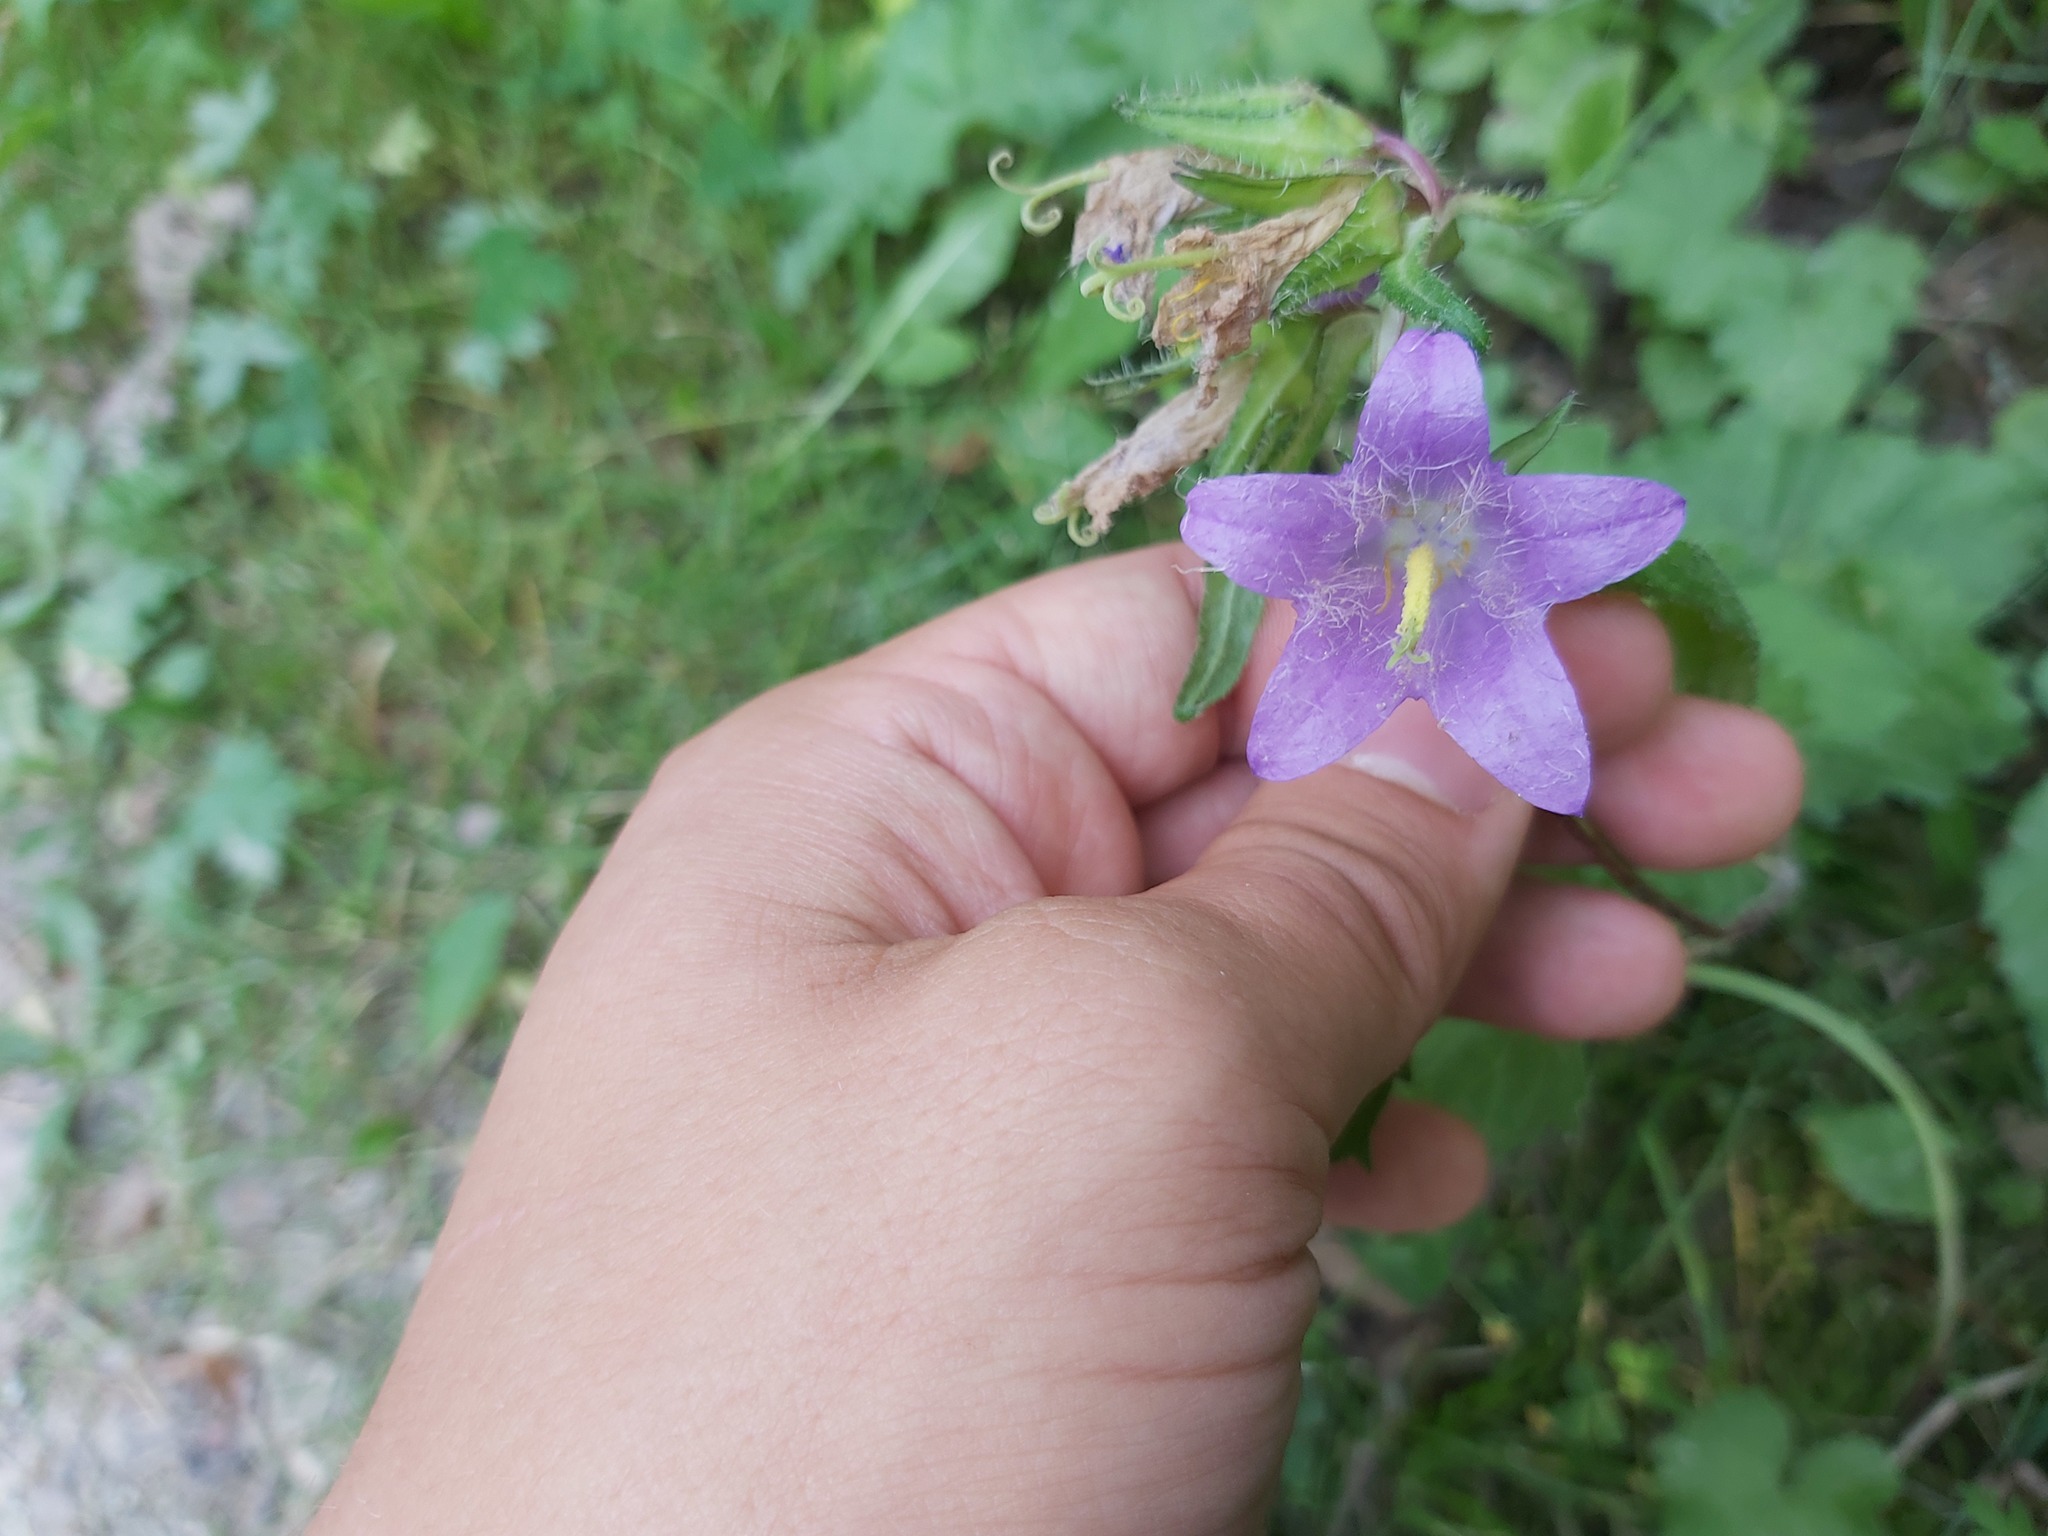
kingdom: Plantae
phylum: Tracheophyta
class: Magnoliopsida
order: Asterales
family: Campanulaceae
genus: Campanula
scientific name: Campanula trachelium
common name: Nettle-leaved bellflower
